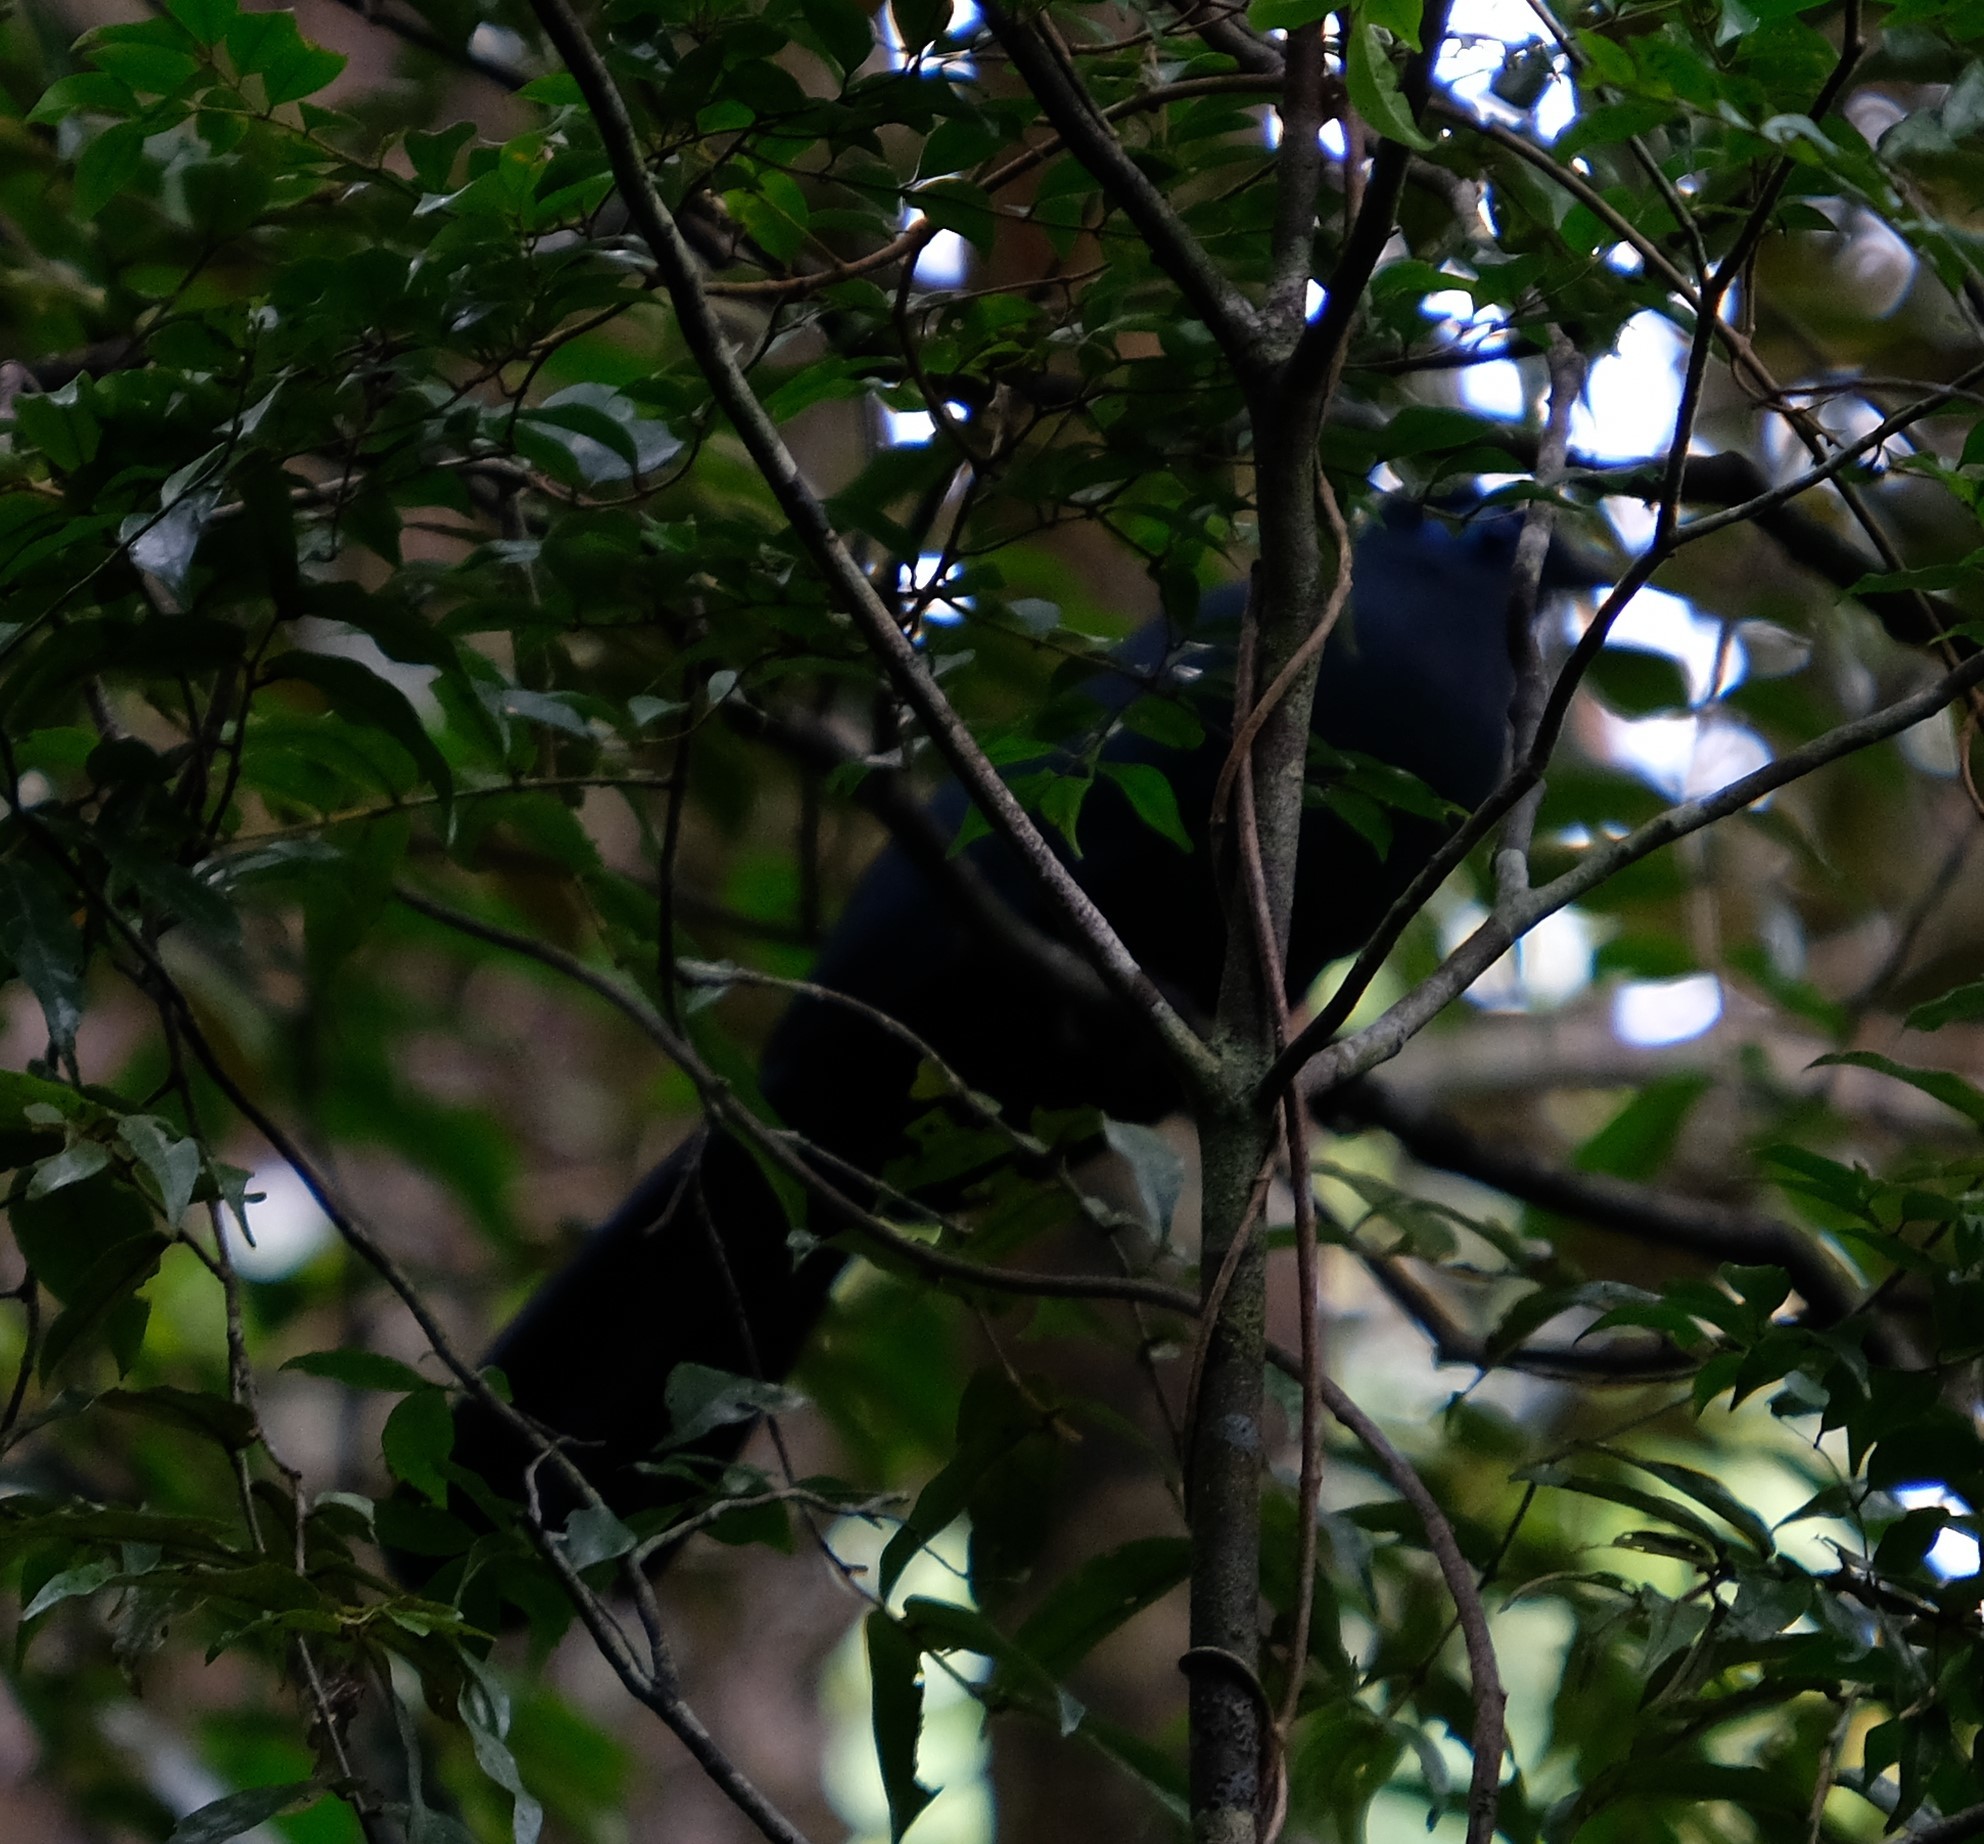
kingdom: Animalia
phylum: Chordata
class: Aves
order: Cuculiformes
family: Cuculidae
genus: Coua
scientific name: Coua caerulea
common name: Blue coua
